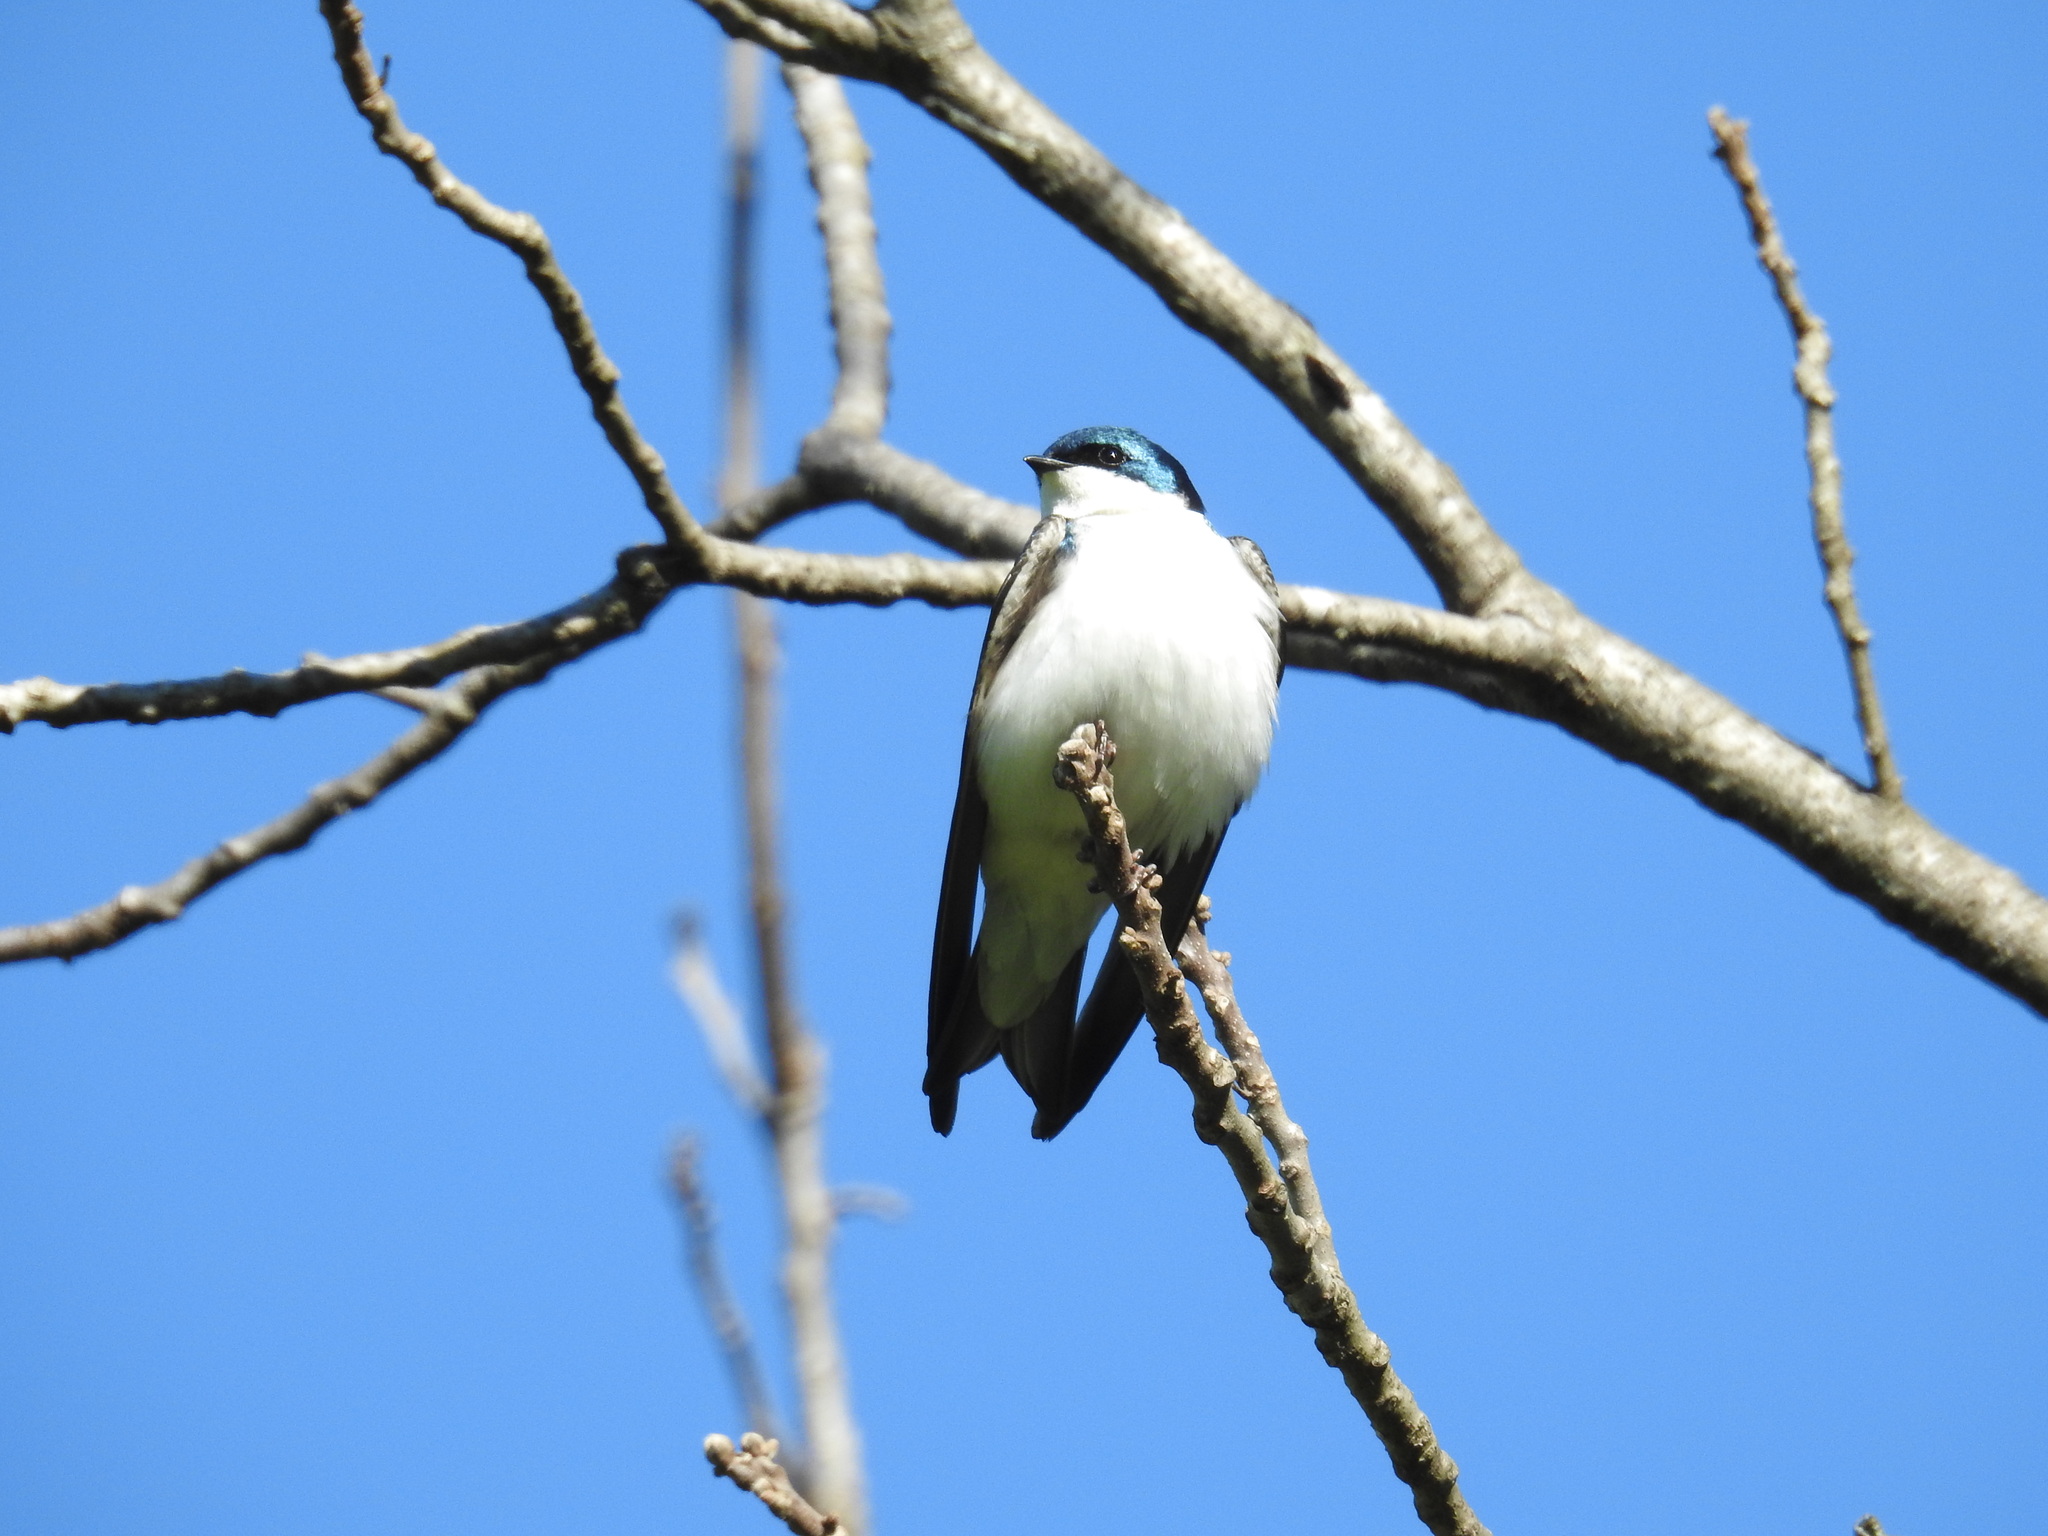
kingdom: Animalia
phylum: Chordata
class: Aves
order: Passeriformes
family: Hirundinidae
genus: Tachycineta
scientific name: Tachycineta bicolor
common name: Tree swallow
